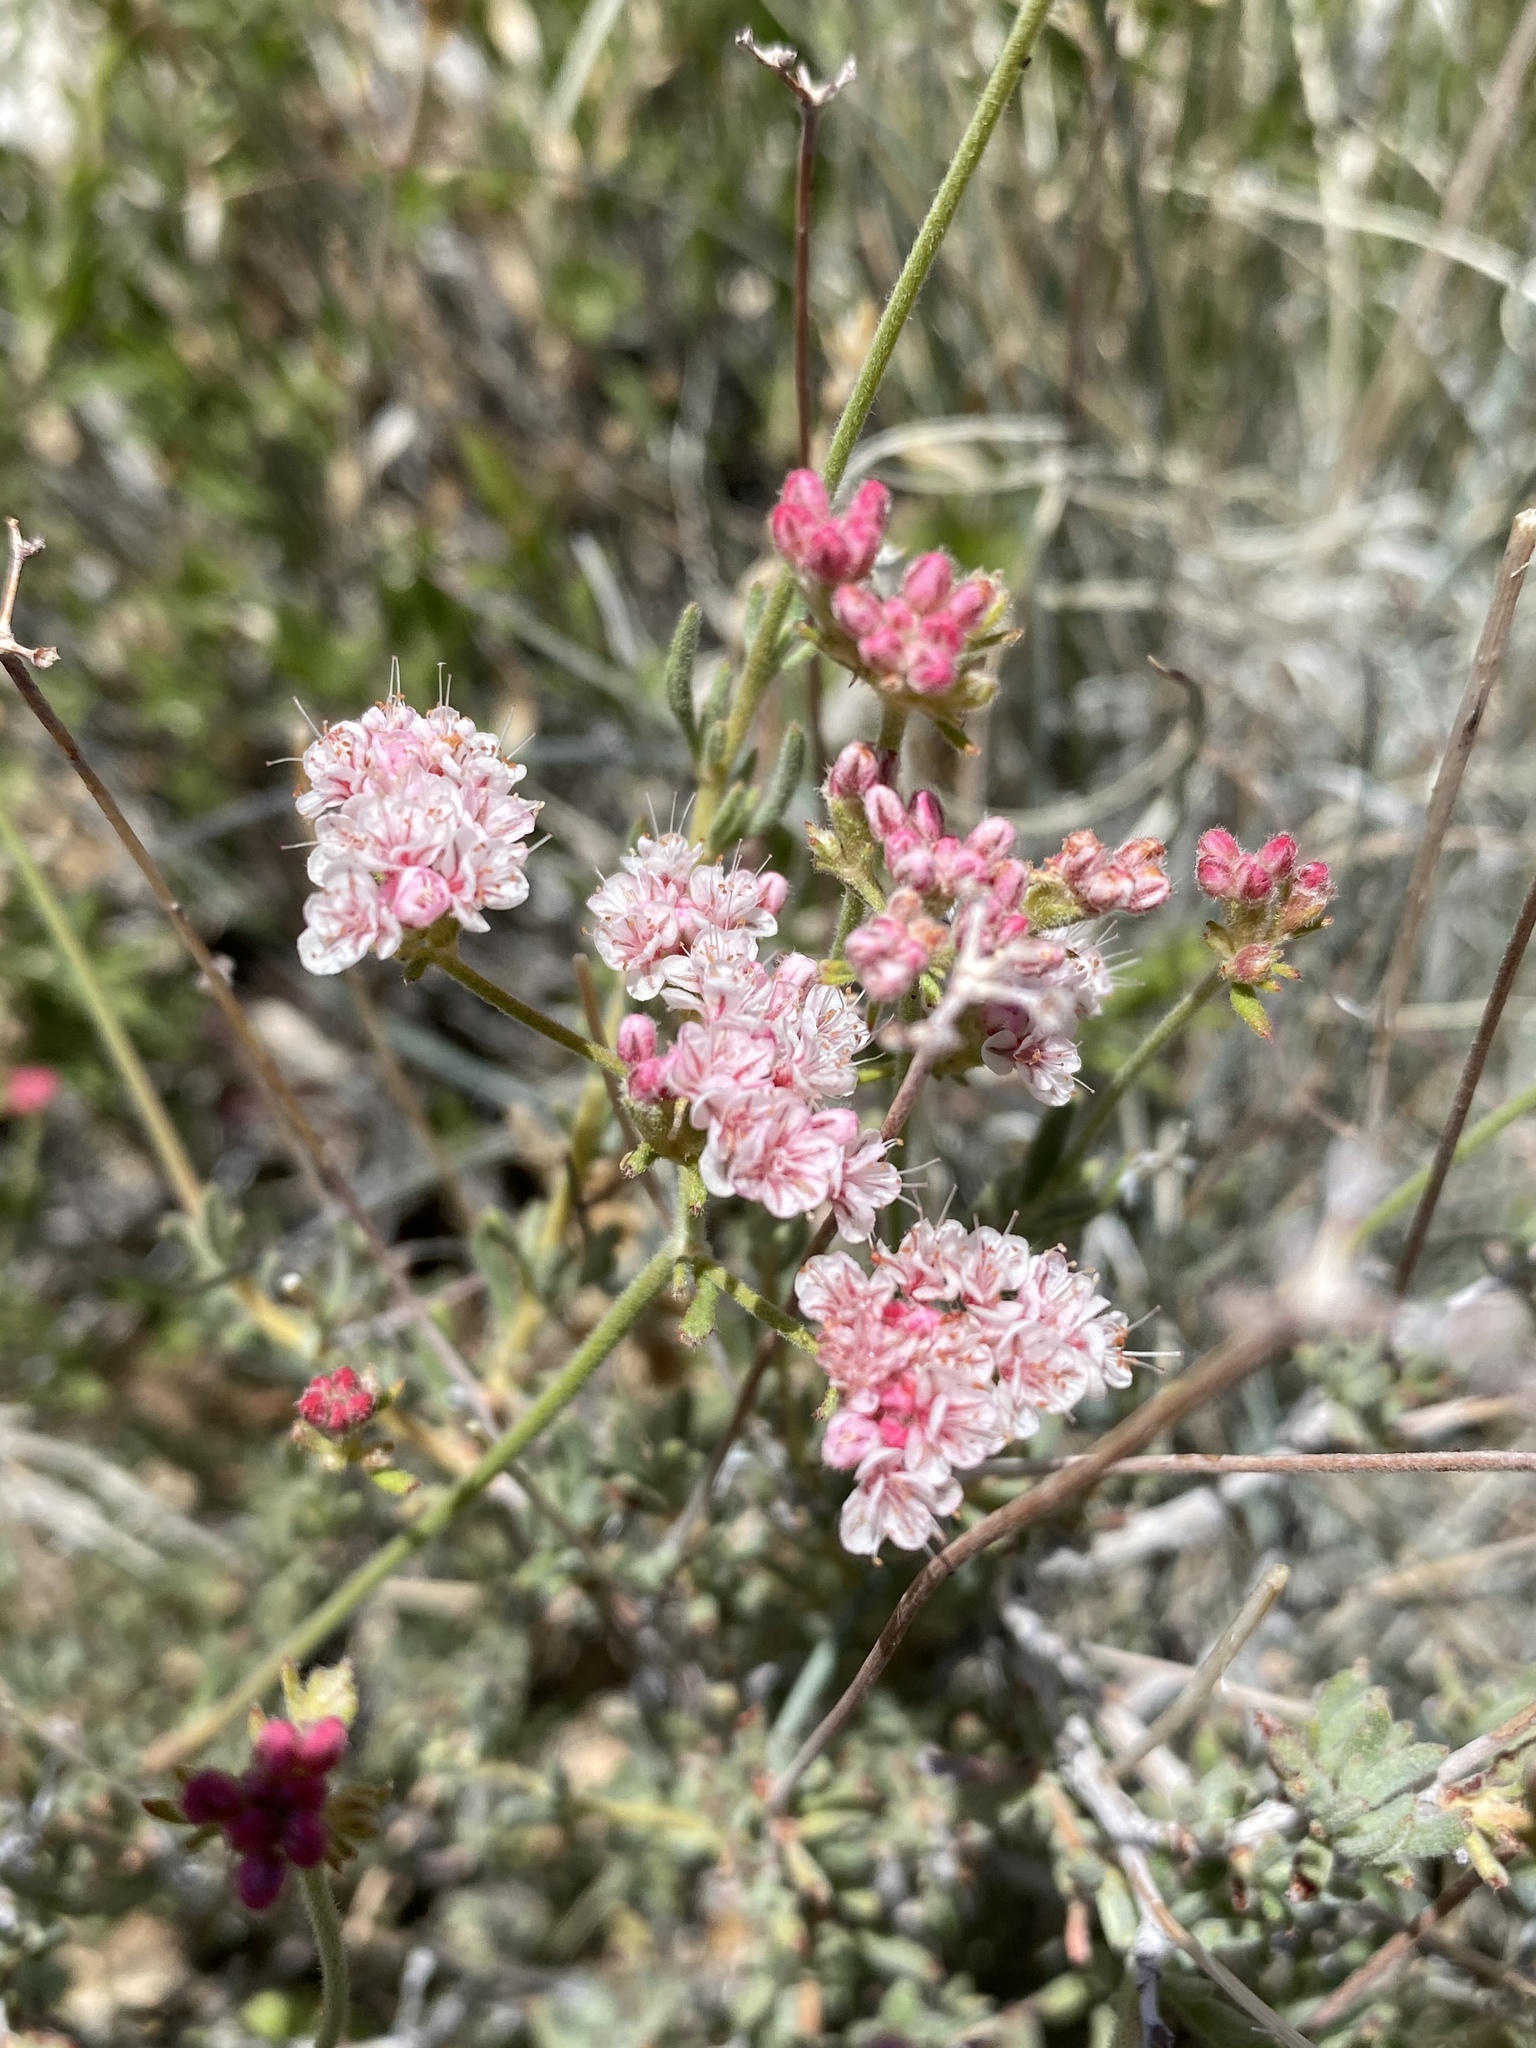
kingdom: Plantae
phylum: Tracheophyta
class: Magnoliopsida
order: Caryophyllales
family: Polygonaceae
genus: Eriogonum
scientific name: Eriogonum fasciculatum
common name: California wild buckwheat
